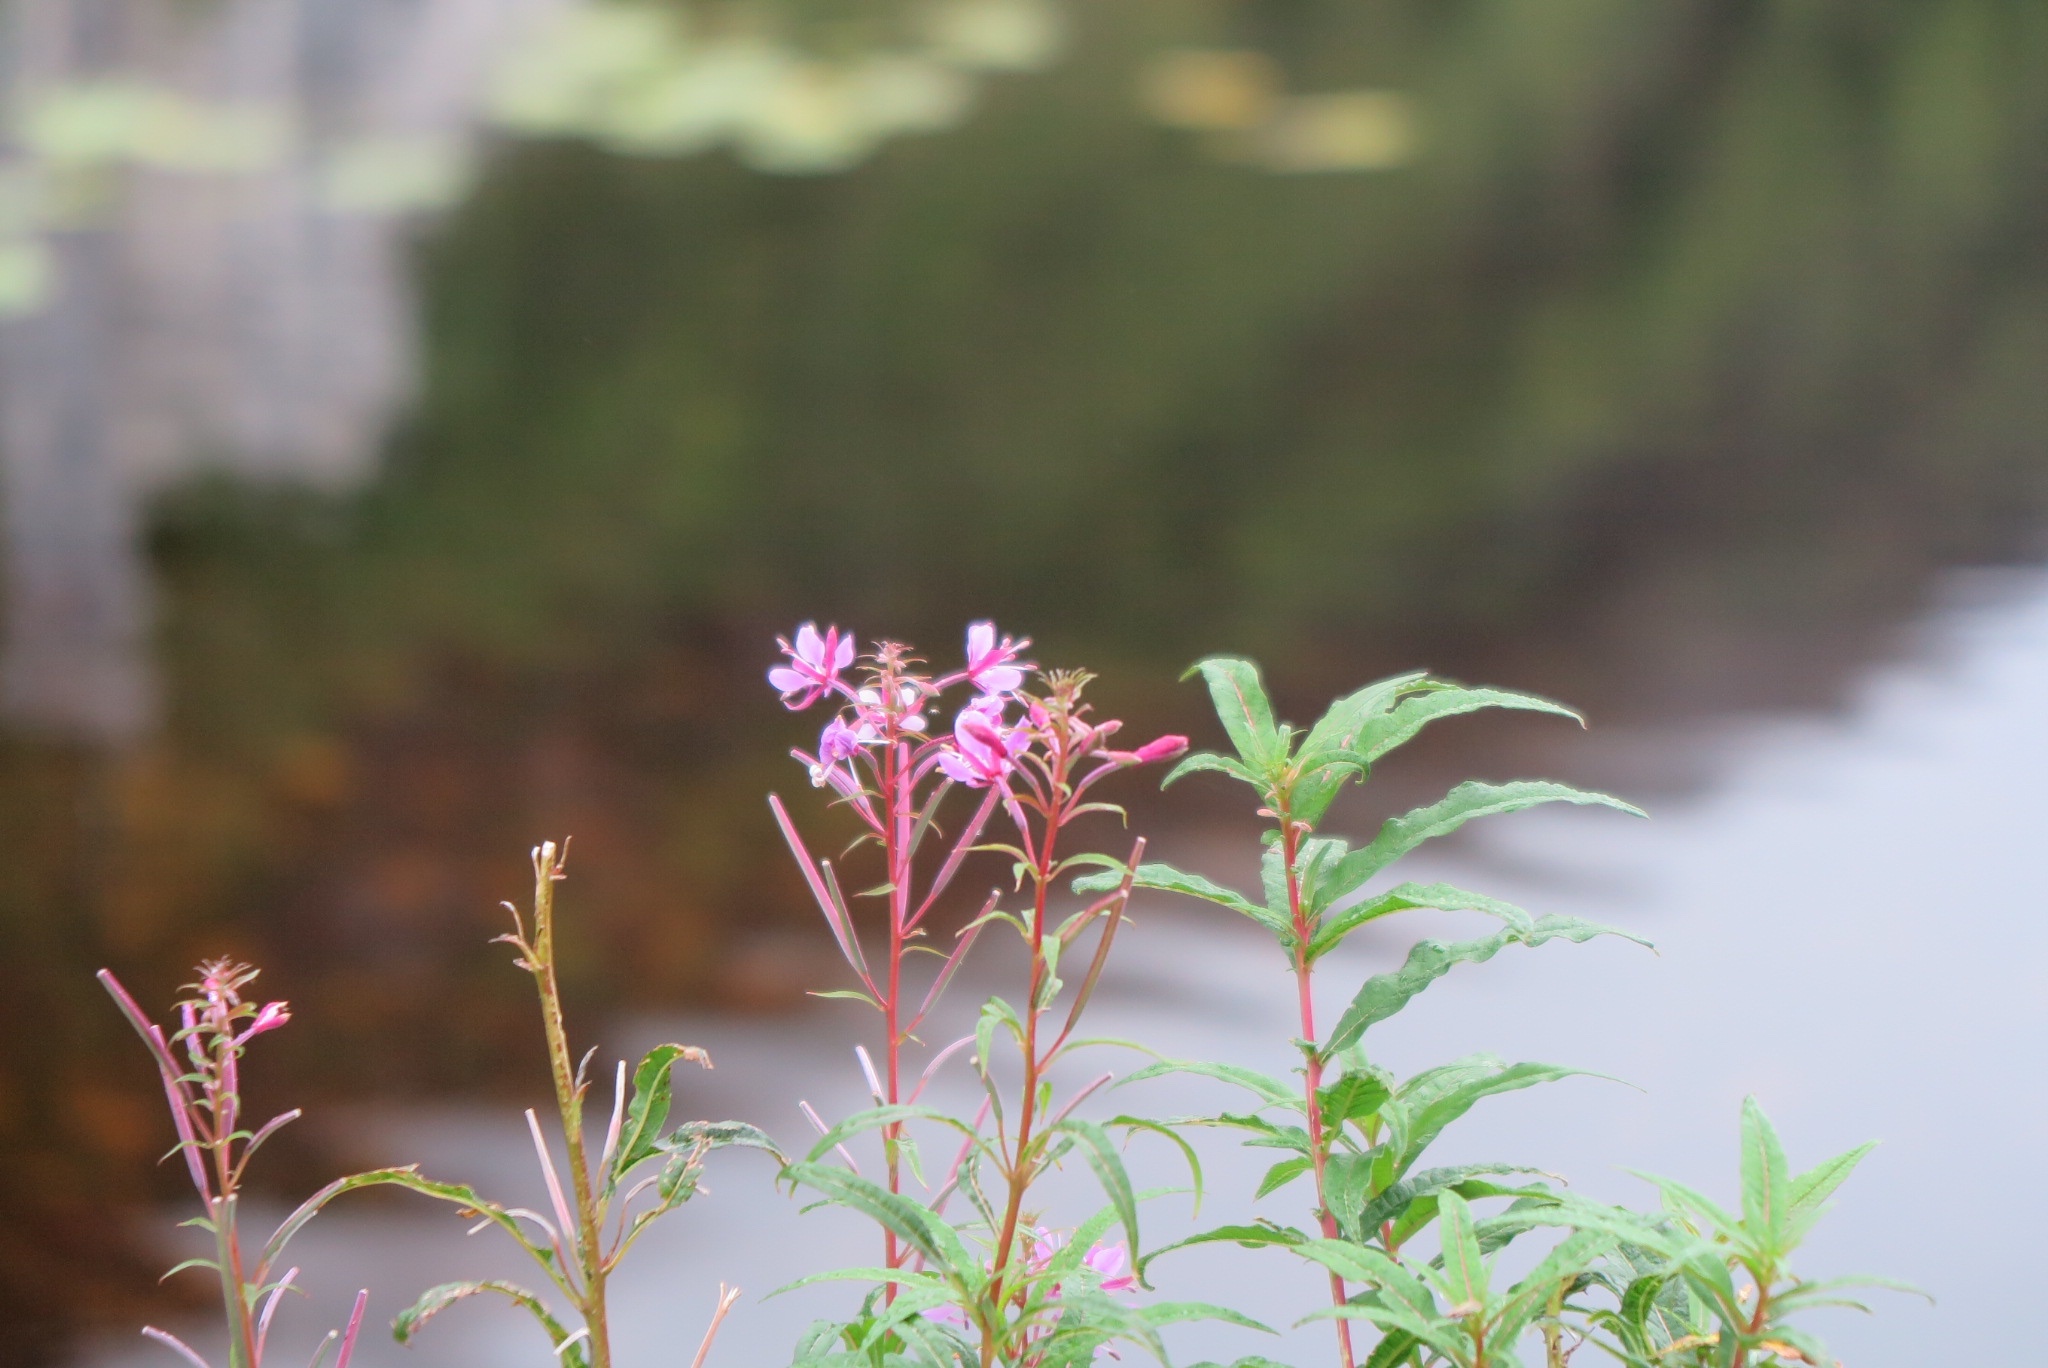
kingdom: Plantae
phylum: Tracheophyta
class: Magnoliopsida
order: Myrtales
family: Onagraceae
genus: Chamaenerion
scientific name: Chamaenerion angustifolium
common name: Fireweed
